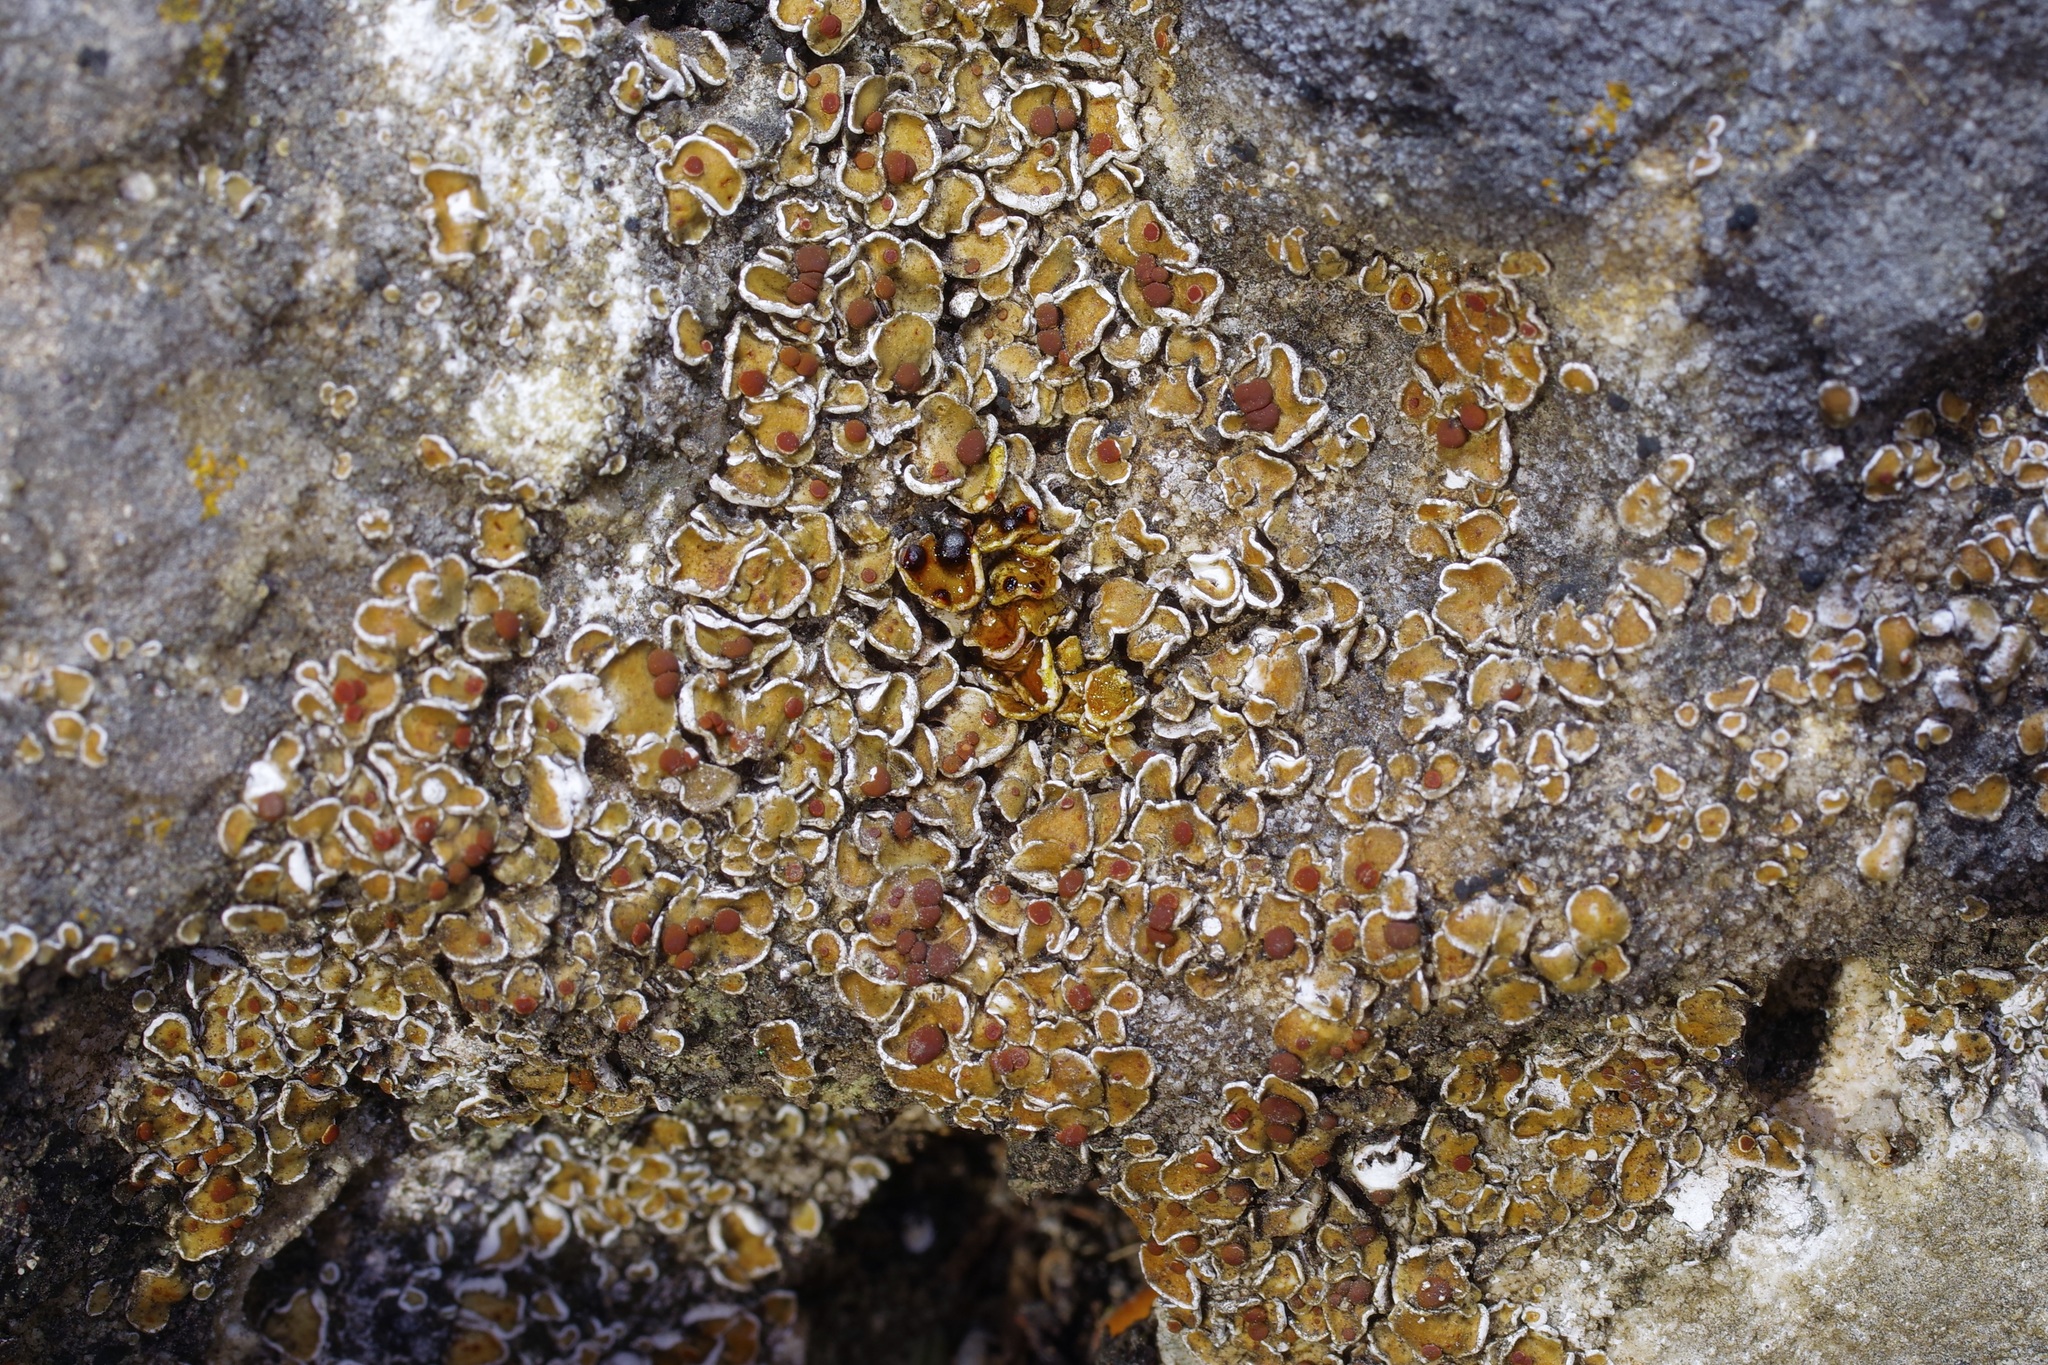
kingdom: Fungi
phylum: Ascomycota
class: Lecanoromycetes
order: Lecanorales
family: Psoraceae
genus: Psora
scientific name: Psora pseudorussellii
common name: Bordered scale lichen
